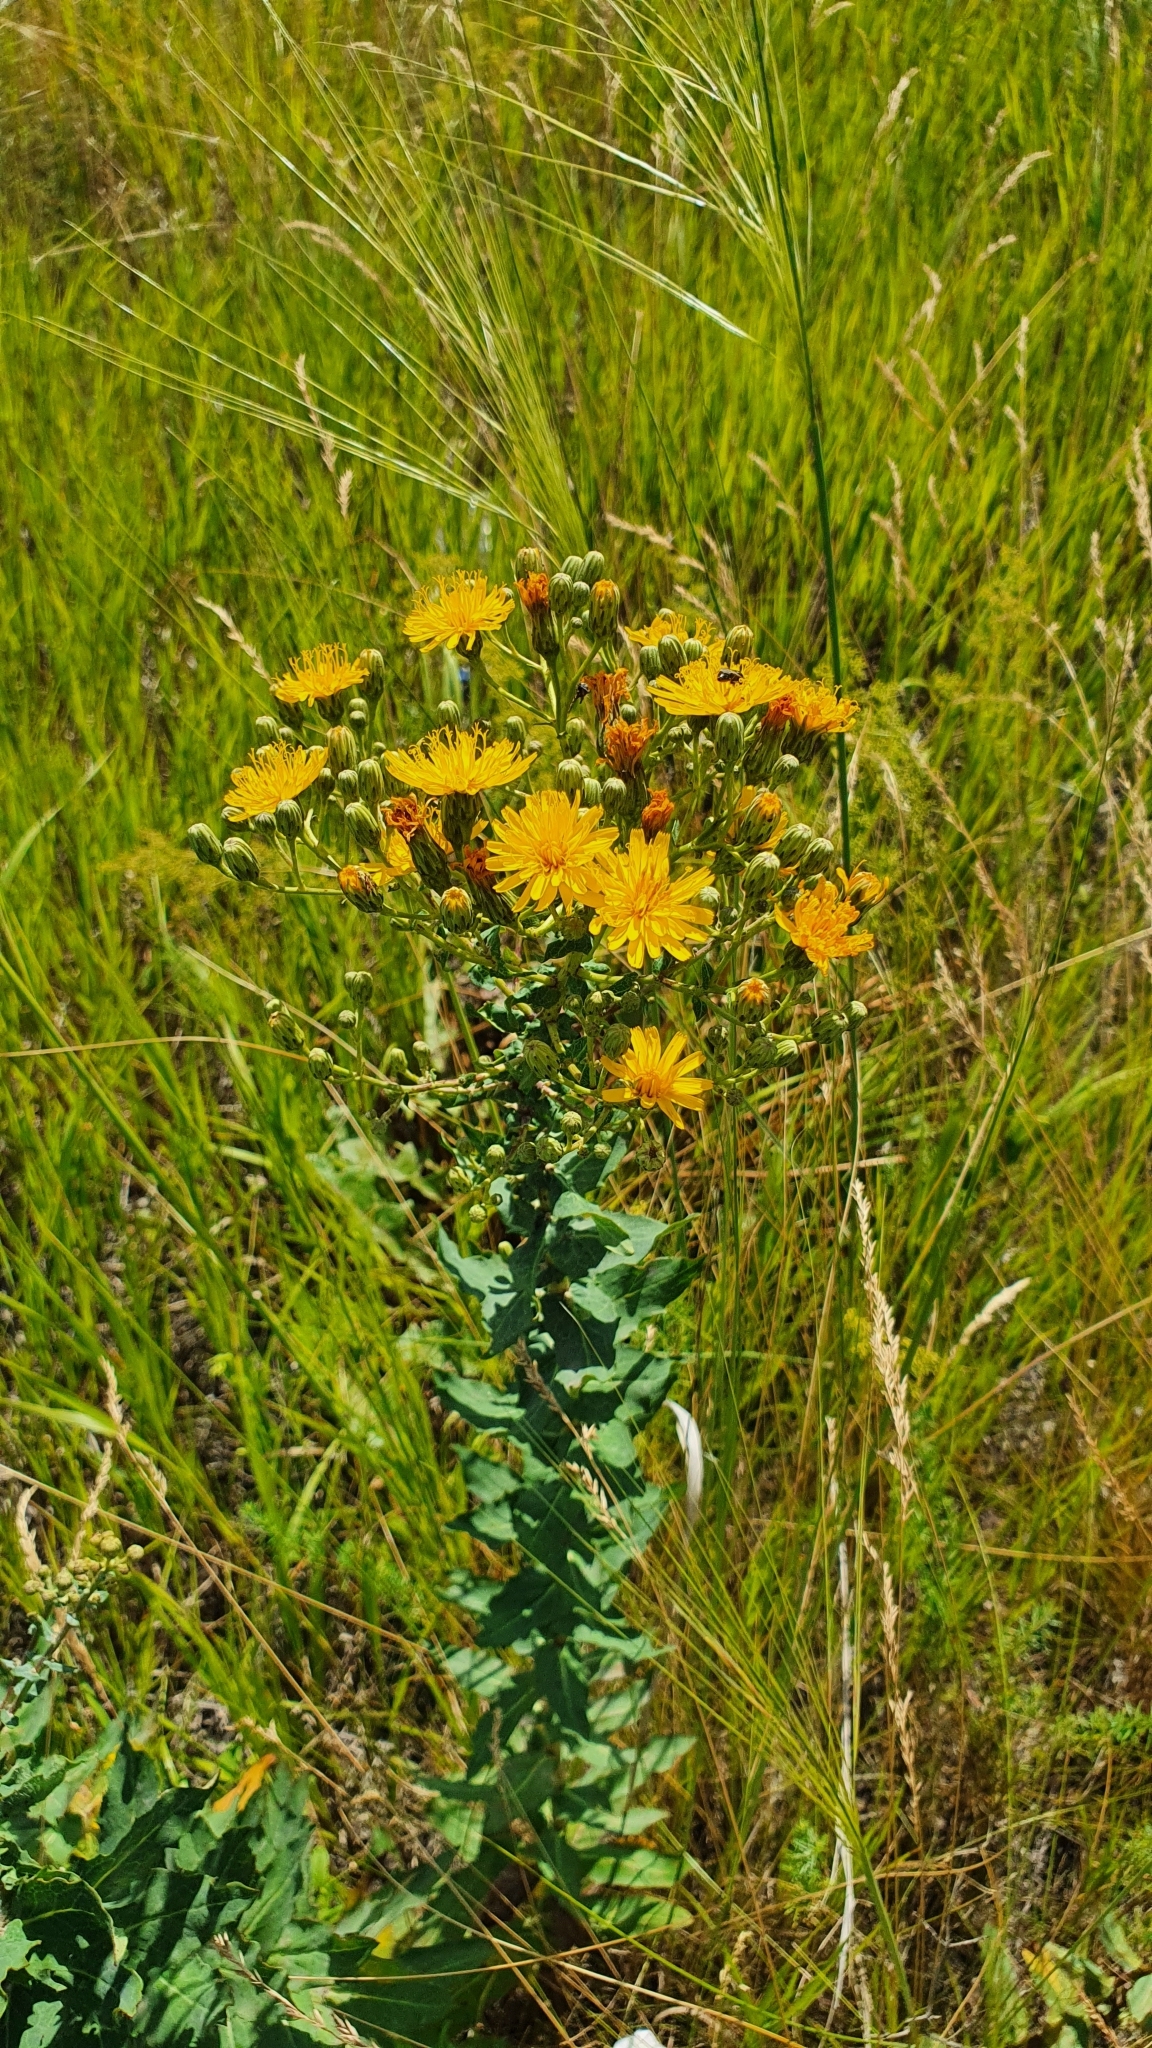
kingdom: Plantae
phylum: Tracheophyta
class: Magnoliopsida
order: Asterales
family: Asteraceae
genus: Hieracium
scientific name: Hieracium robustum
